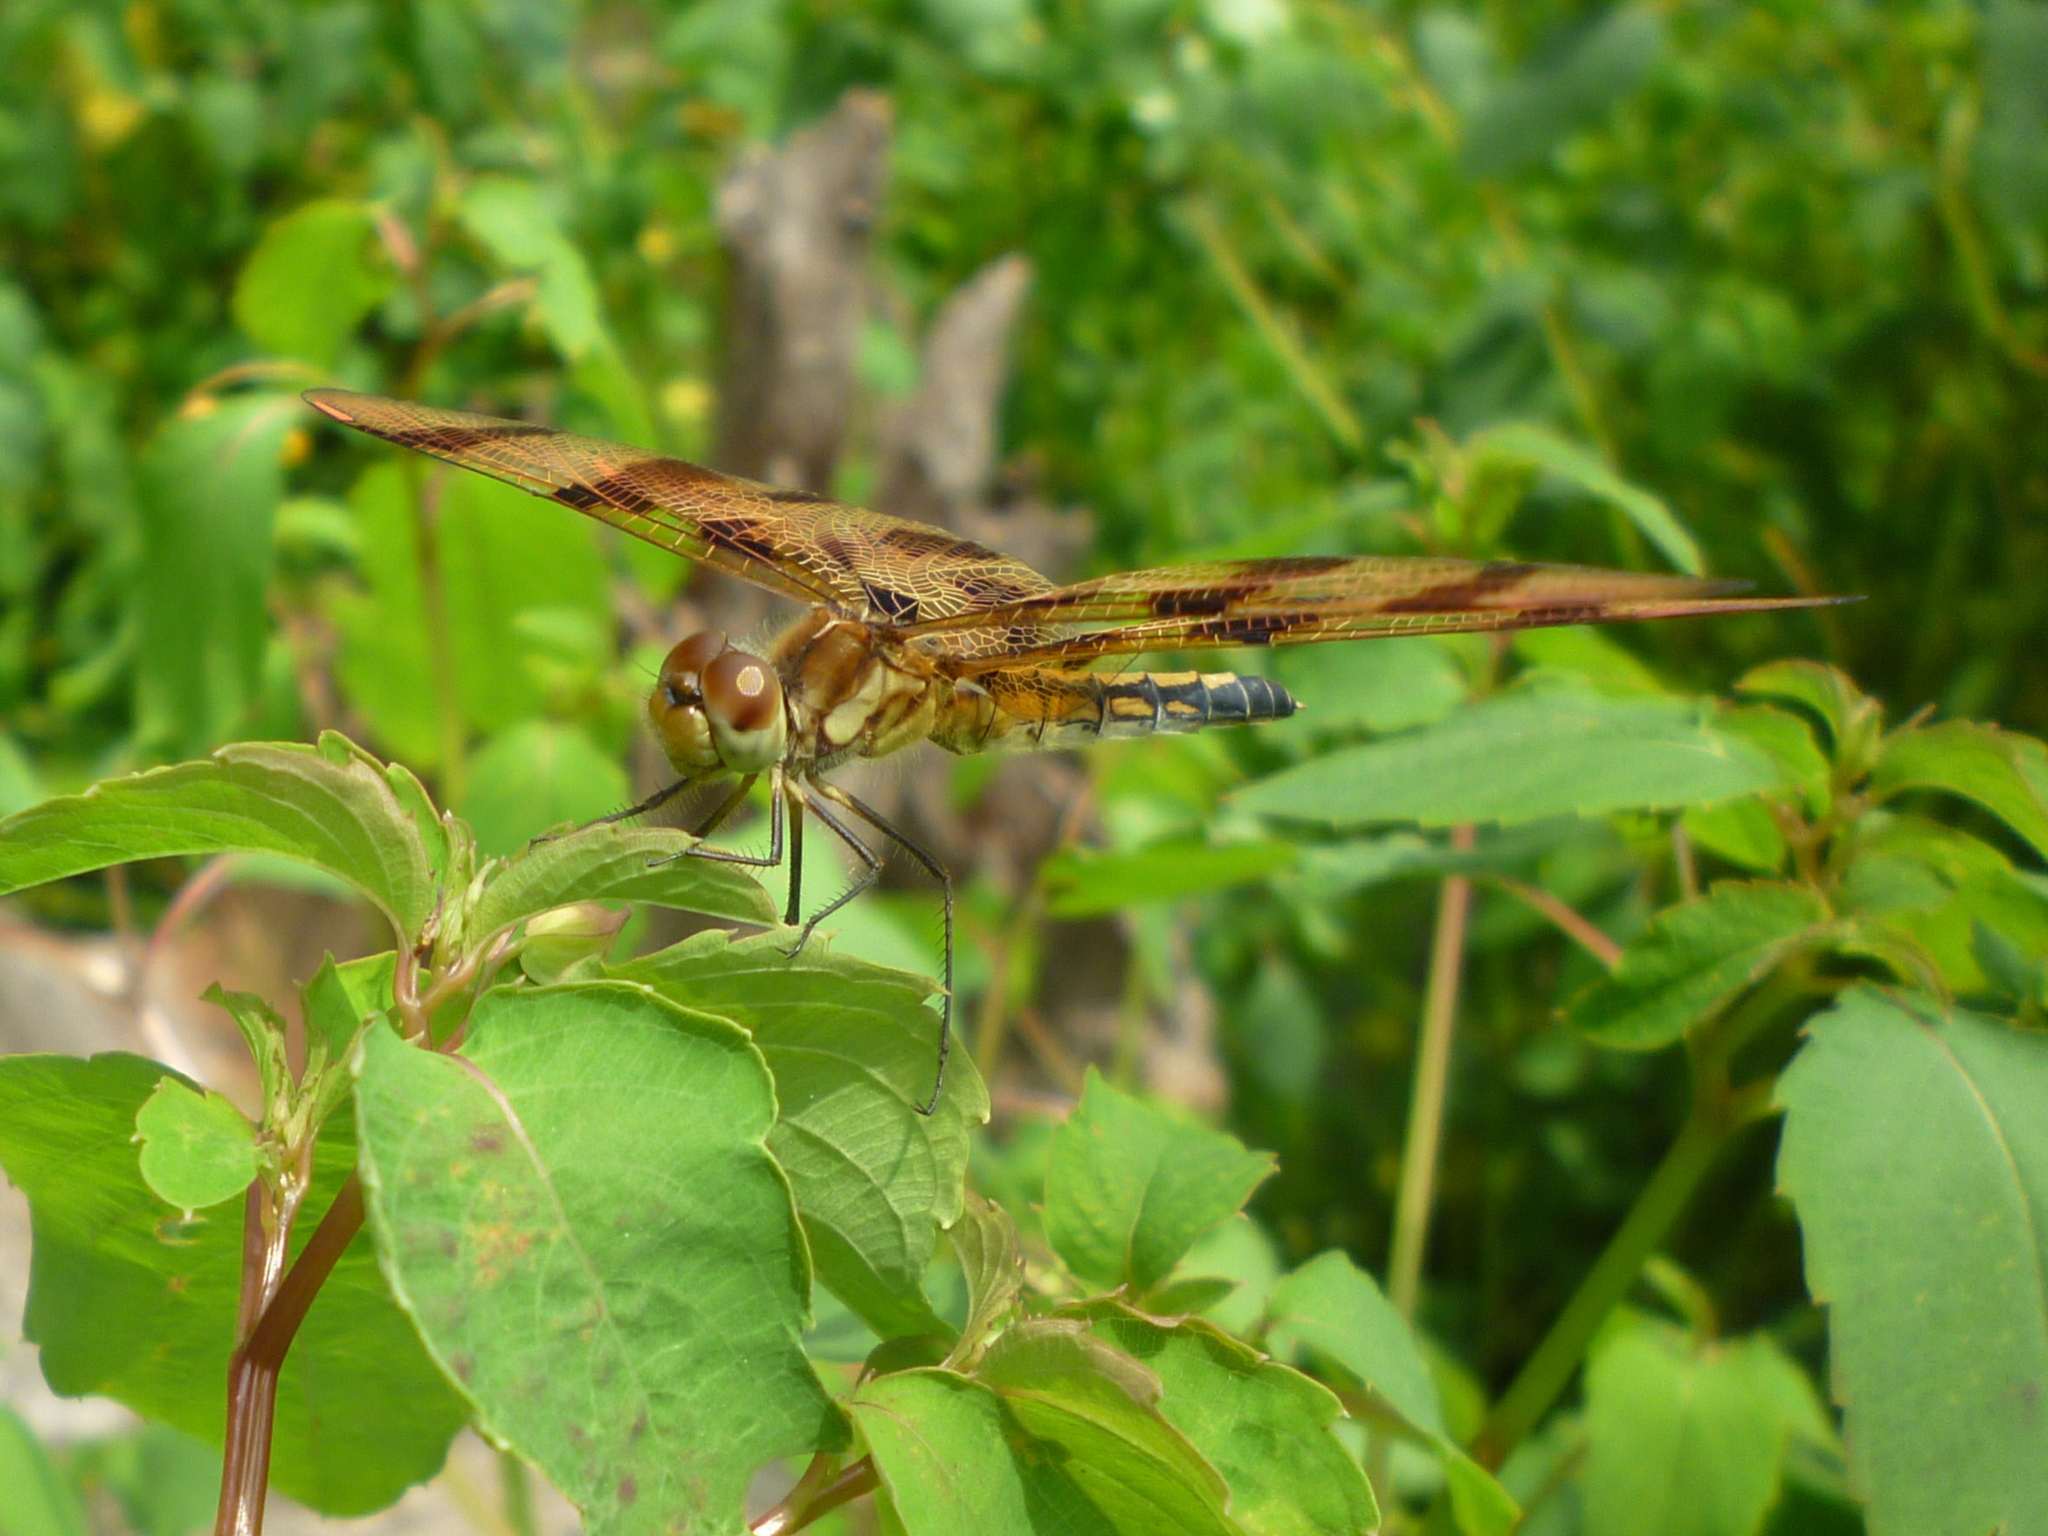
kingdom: Animalia
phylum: Arthropoda
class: Insecta
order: Odonata
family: Libellulidae
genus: Celithemis
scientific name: Celithemis eponina
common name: Halloween pennant
